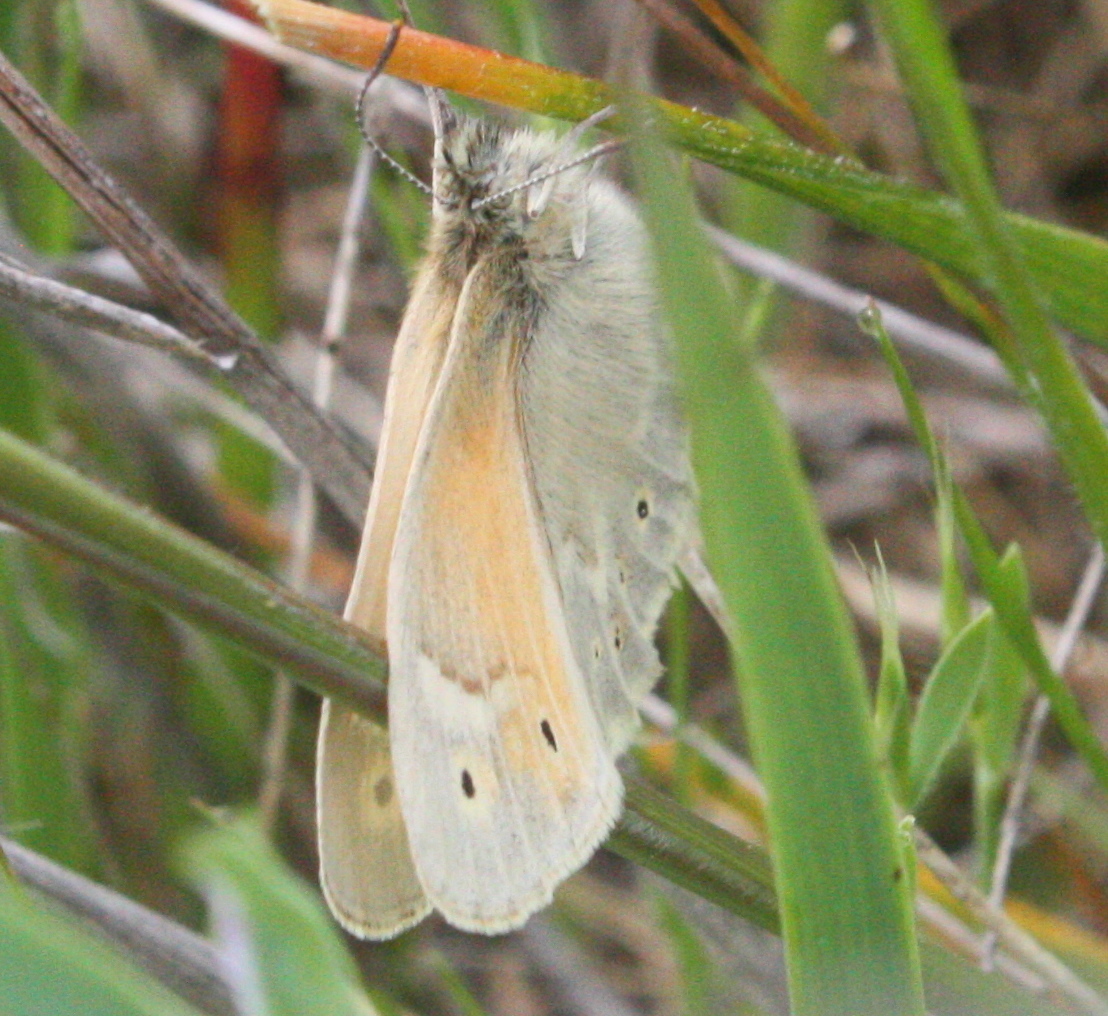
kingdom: Animalia
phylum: Arthropoda
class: Insecta
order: Lepidoptera
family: Nymphalidae
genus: Coenonympha
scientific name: Coenonympha california
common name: Common ringlet
